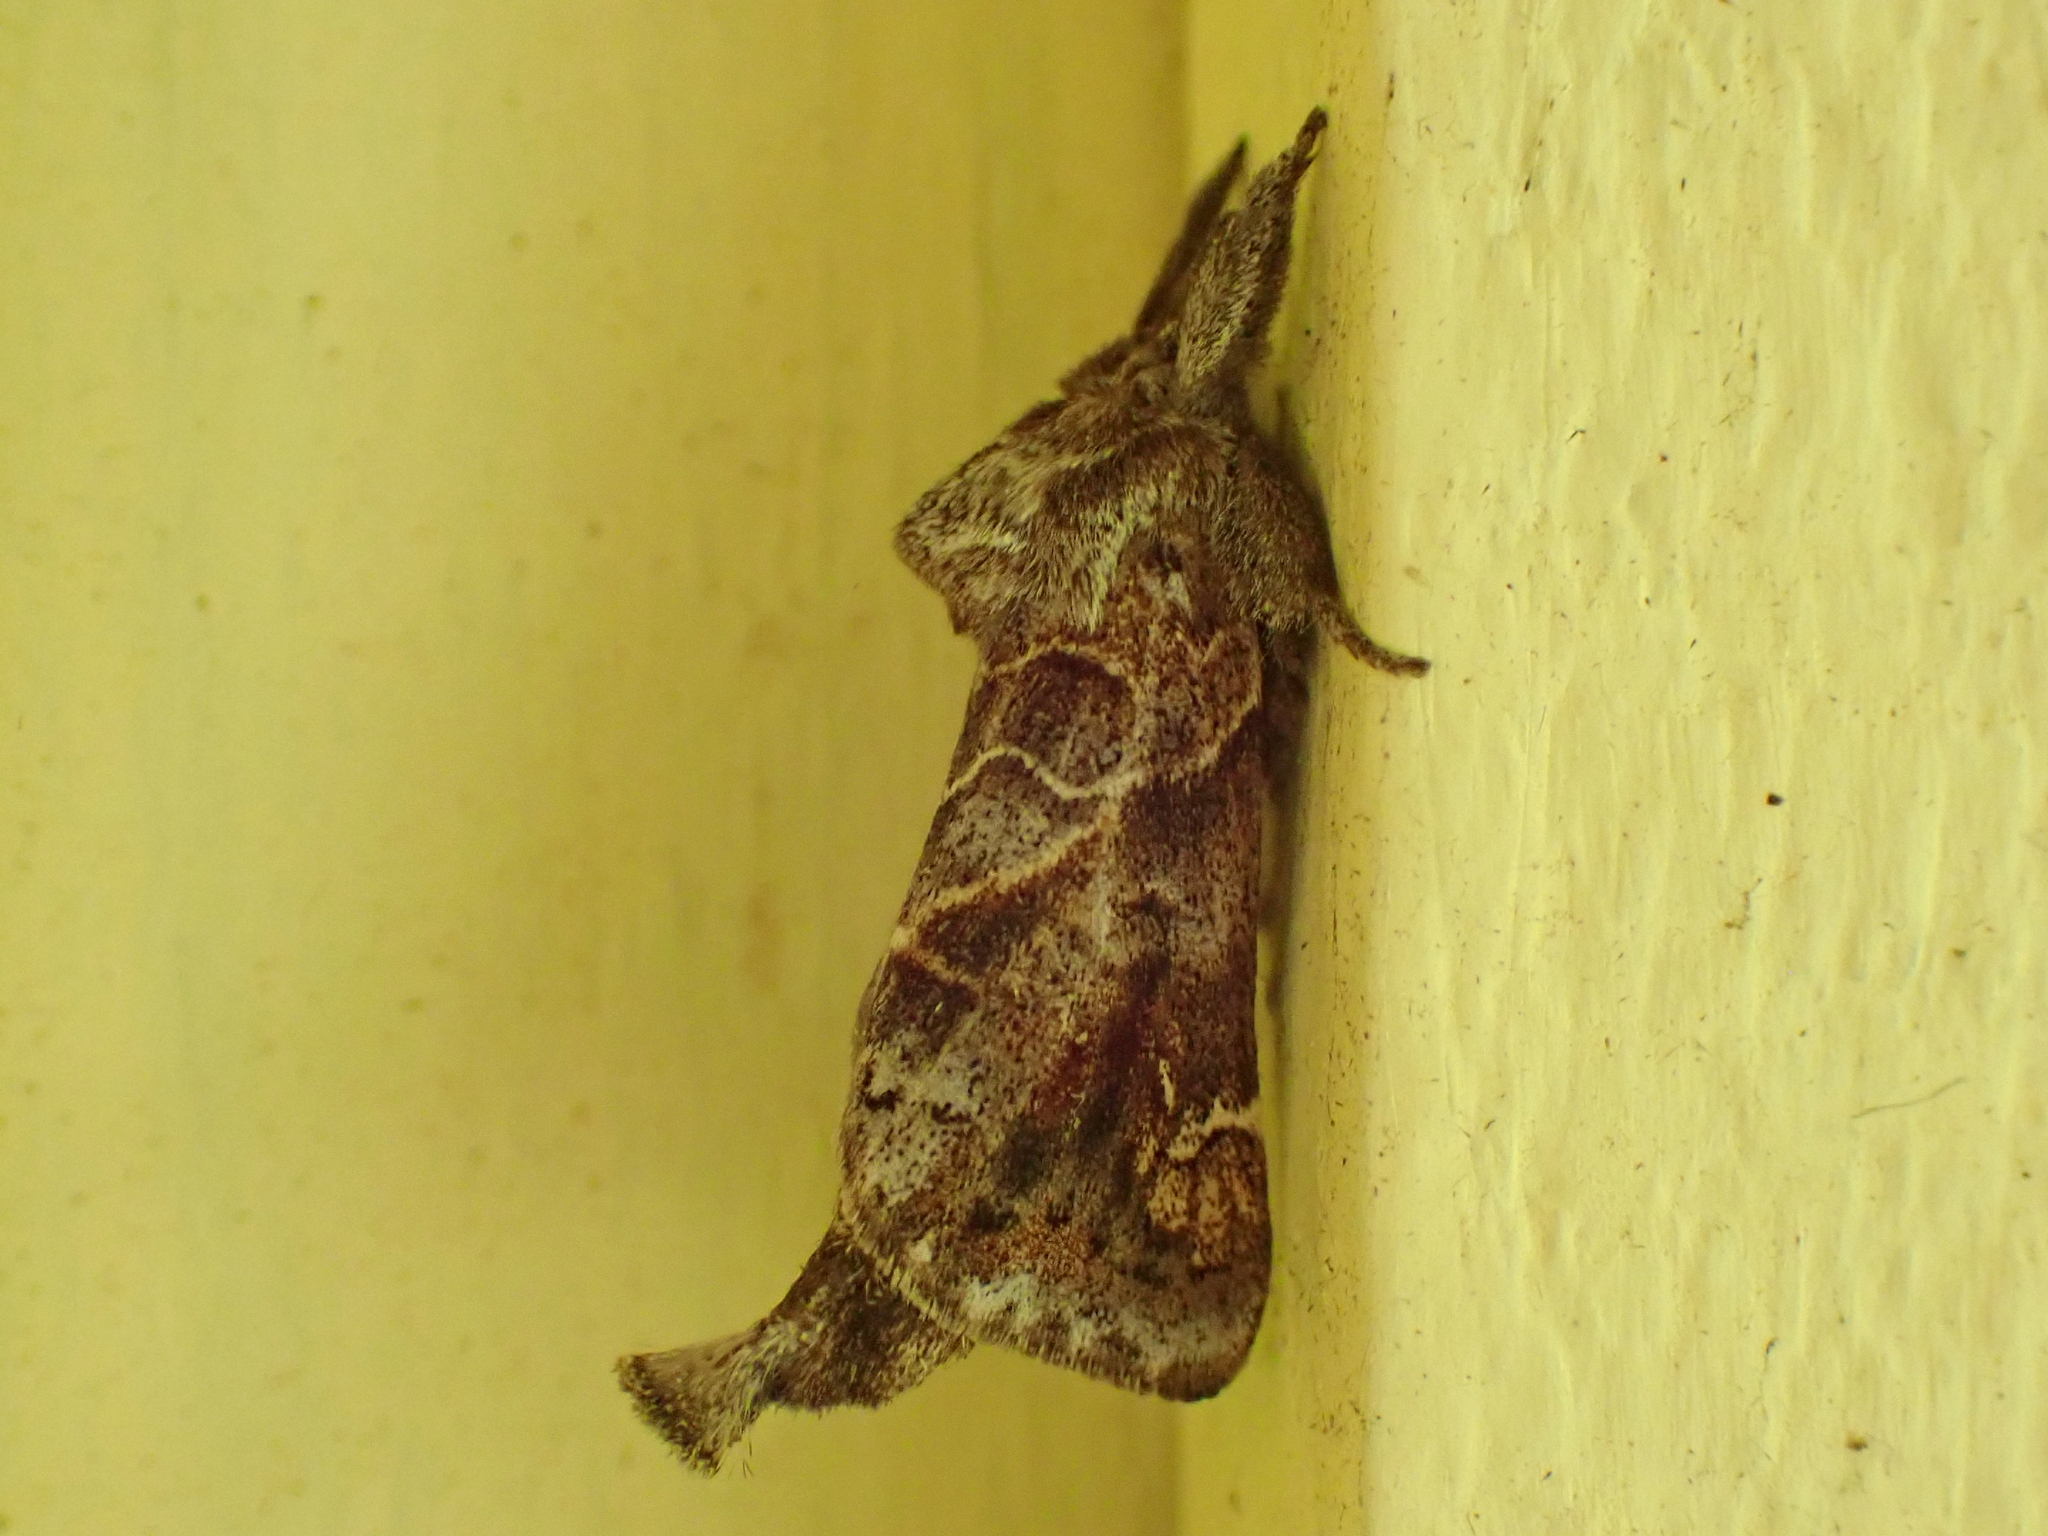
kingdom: Animalia
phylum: Arthropoda
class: Insecta
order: Lepidoptera
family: Notodontidae
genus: Clostera
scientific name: Clostera strigosa
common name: Striped chocolate-tip moth
